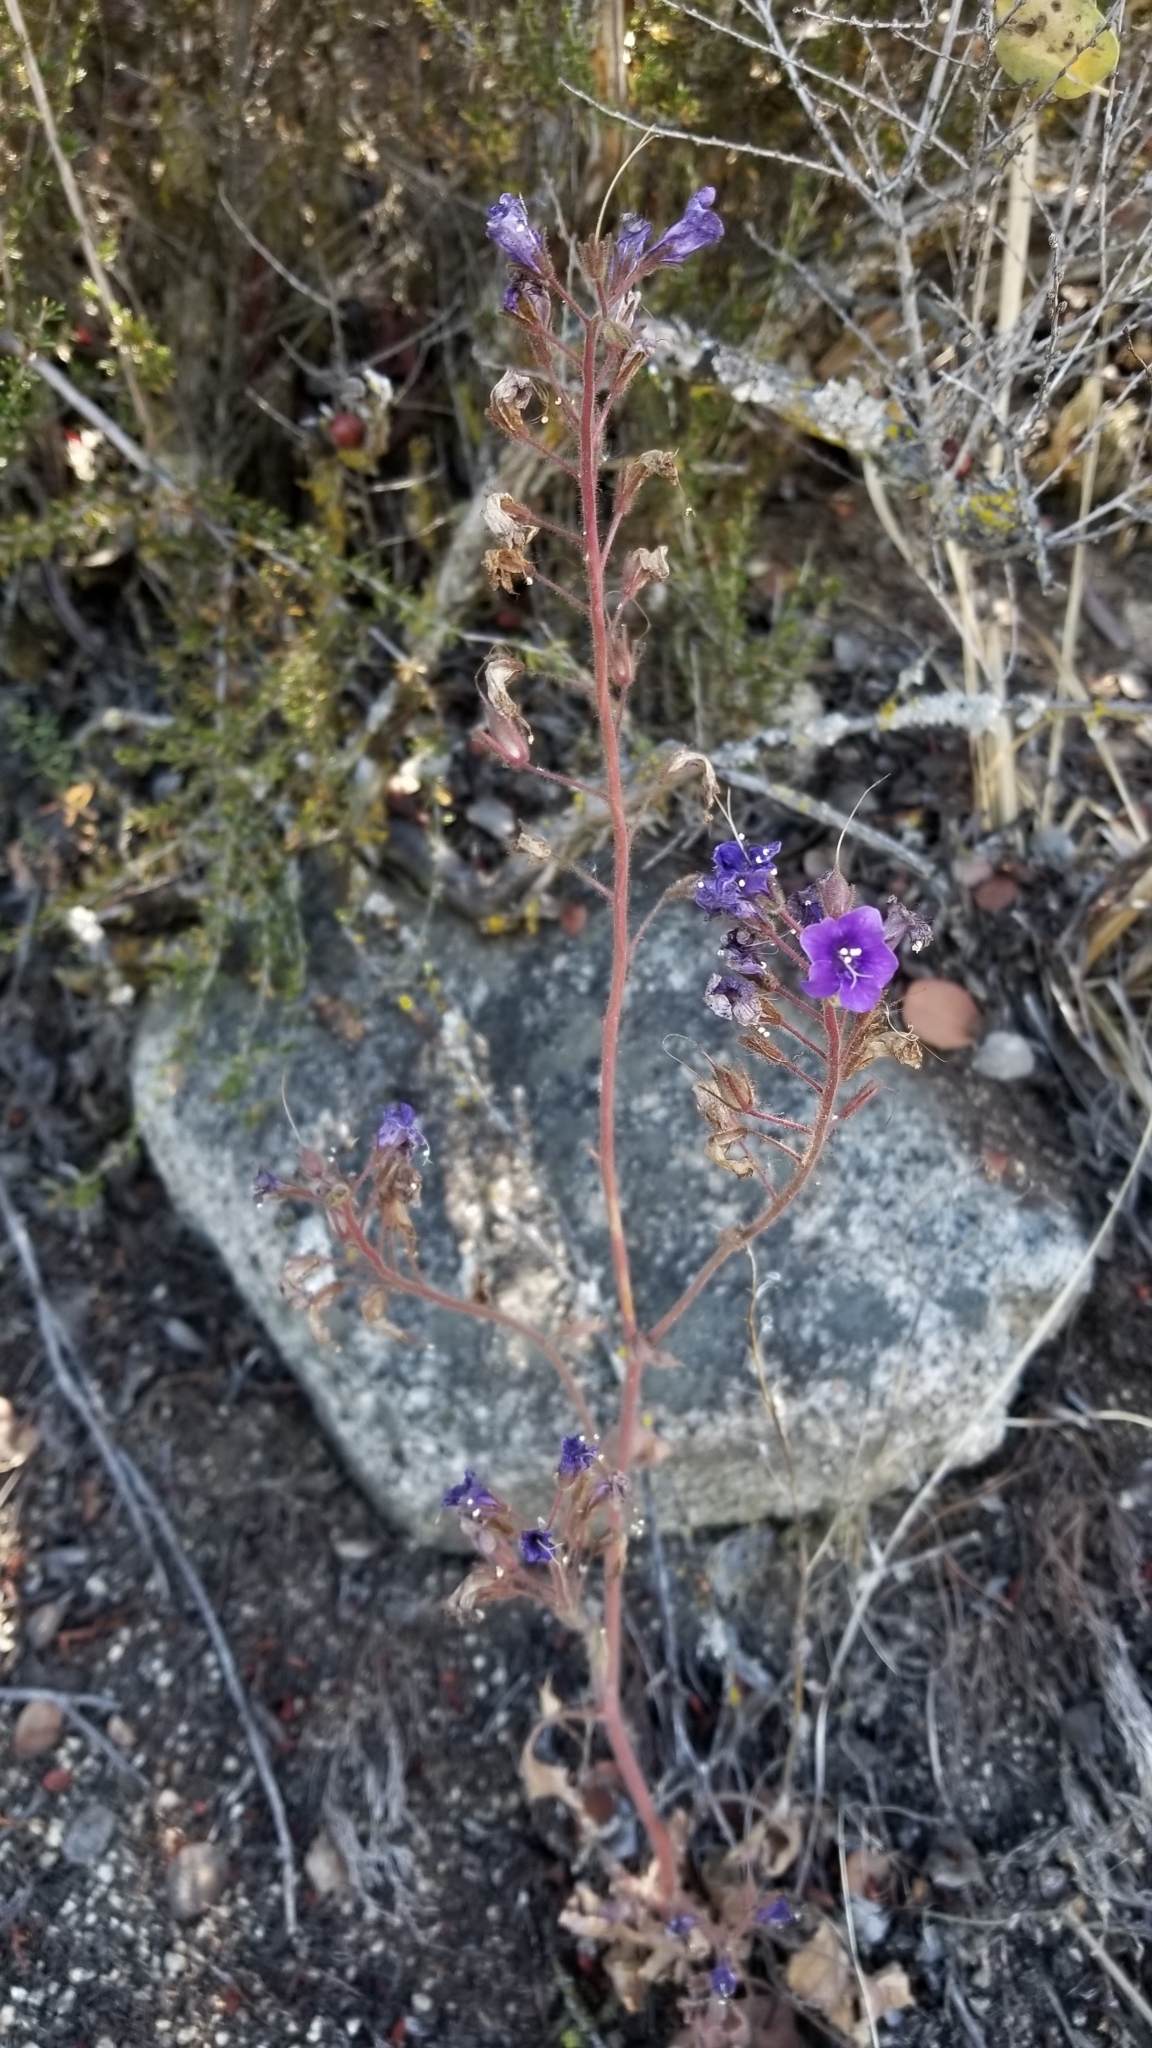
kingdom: Plantae
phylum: Tracheophyta
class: Magnoliopsida
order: Boraginales
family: Hydrophyllaceae
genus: Phacelia
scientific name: Phacelia minor
